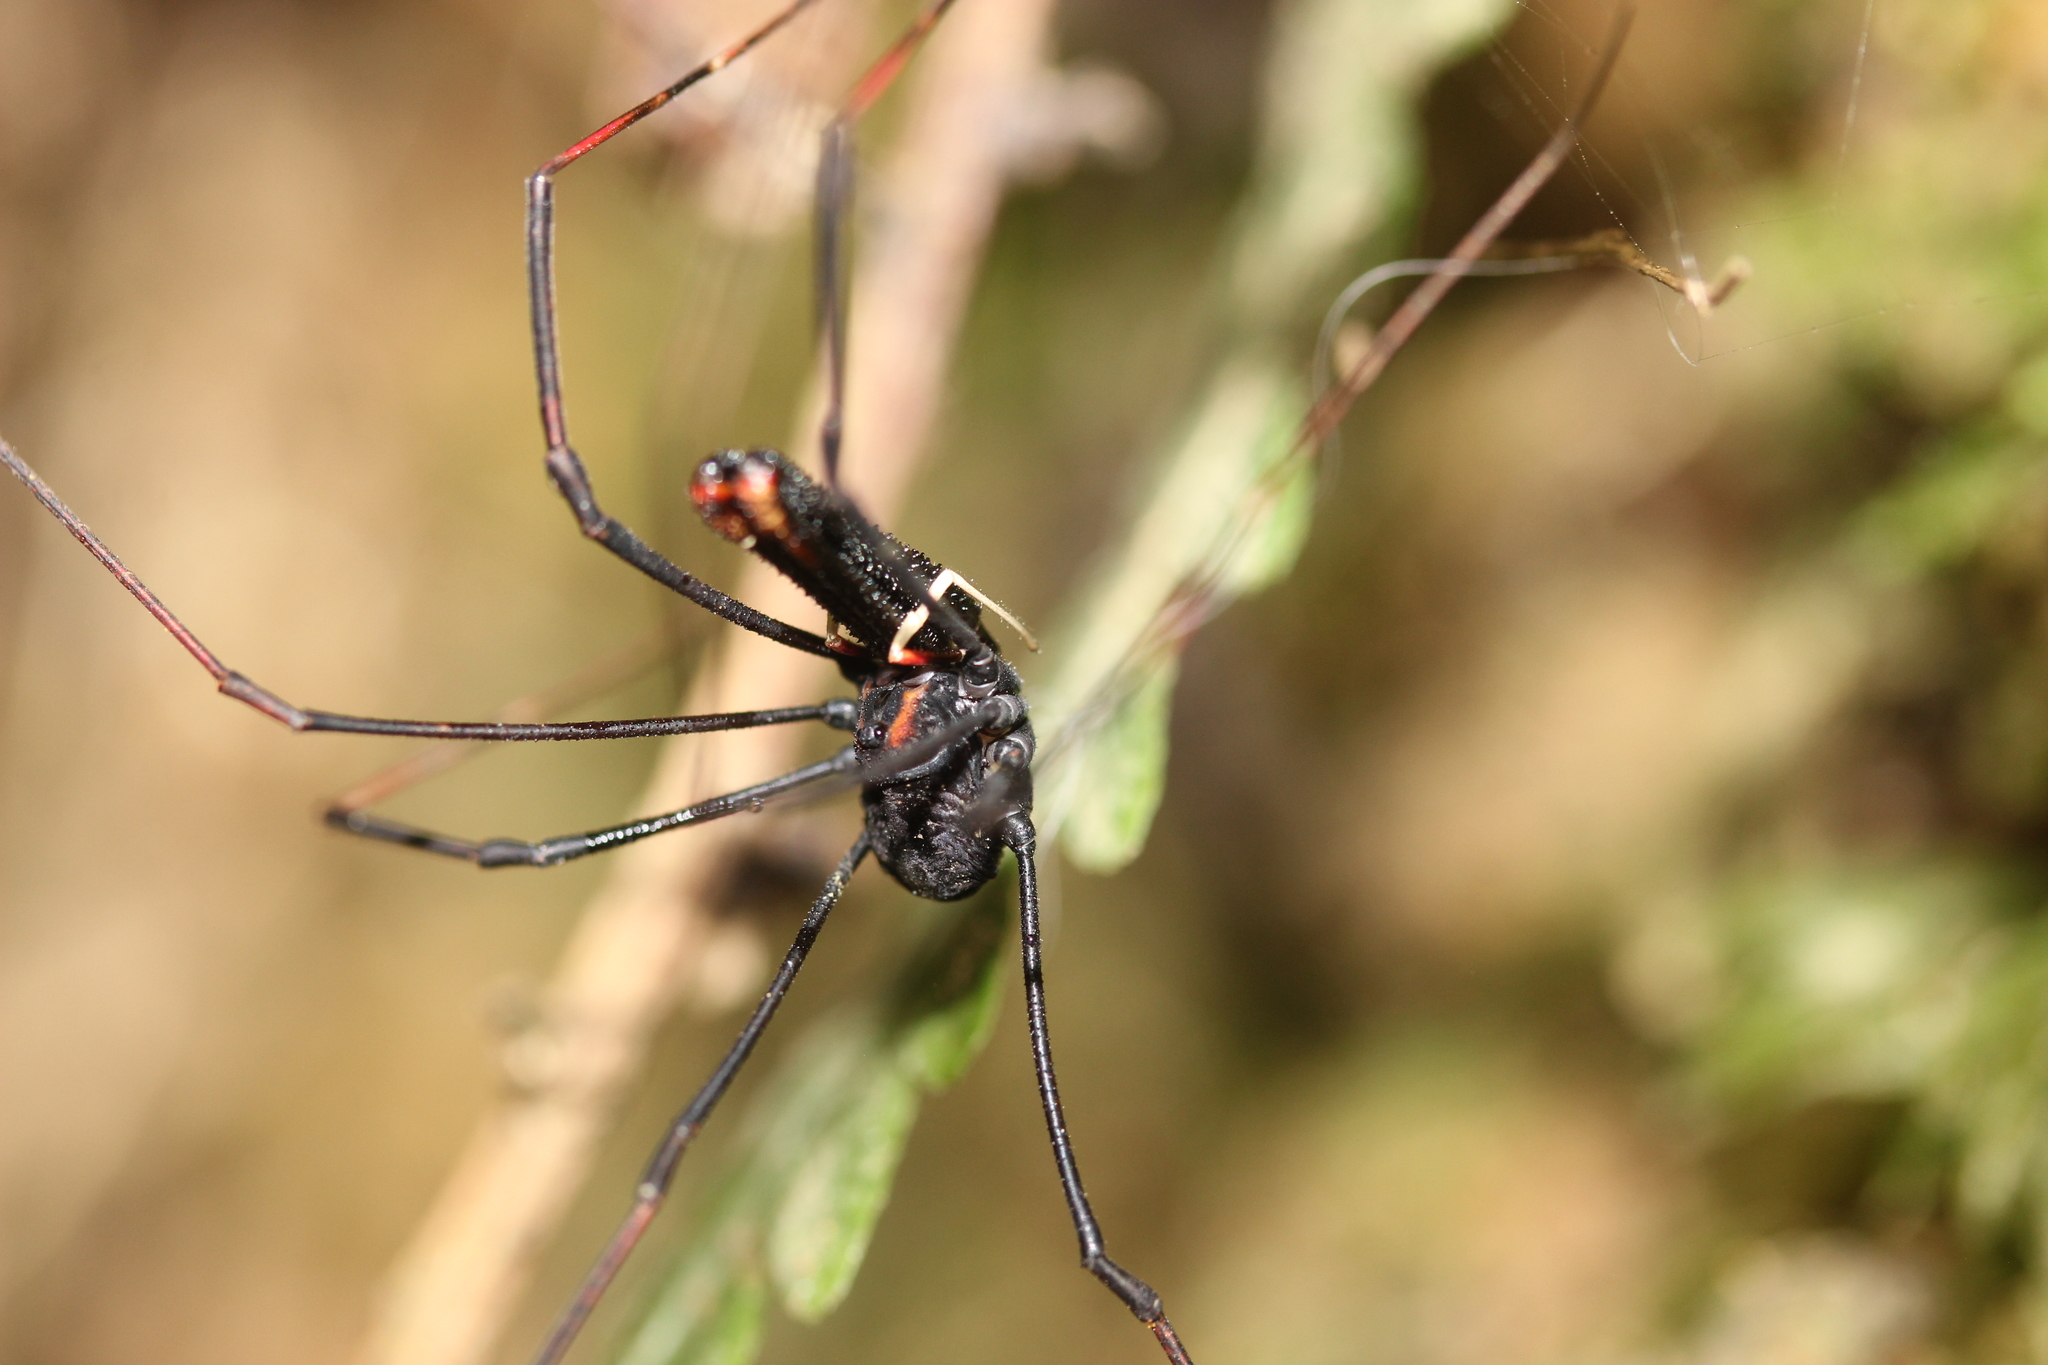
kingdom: Animalia
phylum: Arthropoda
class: Arachnida
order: Opiliones
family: Neopilionidae
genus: Forsteropsalis
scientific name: Forsteropsalis inconstans
